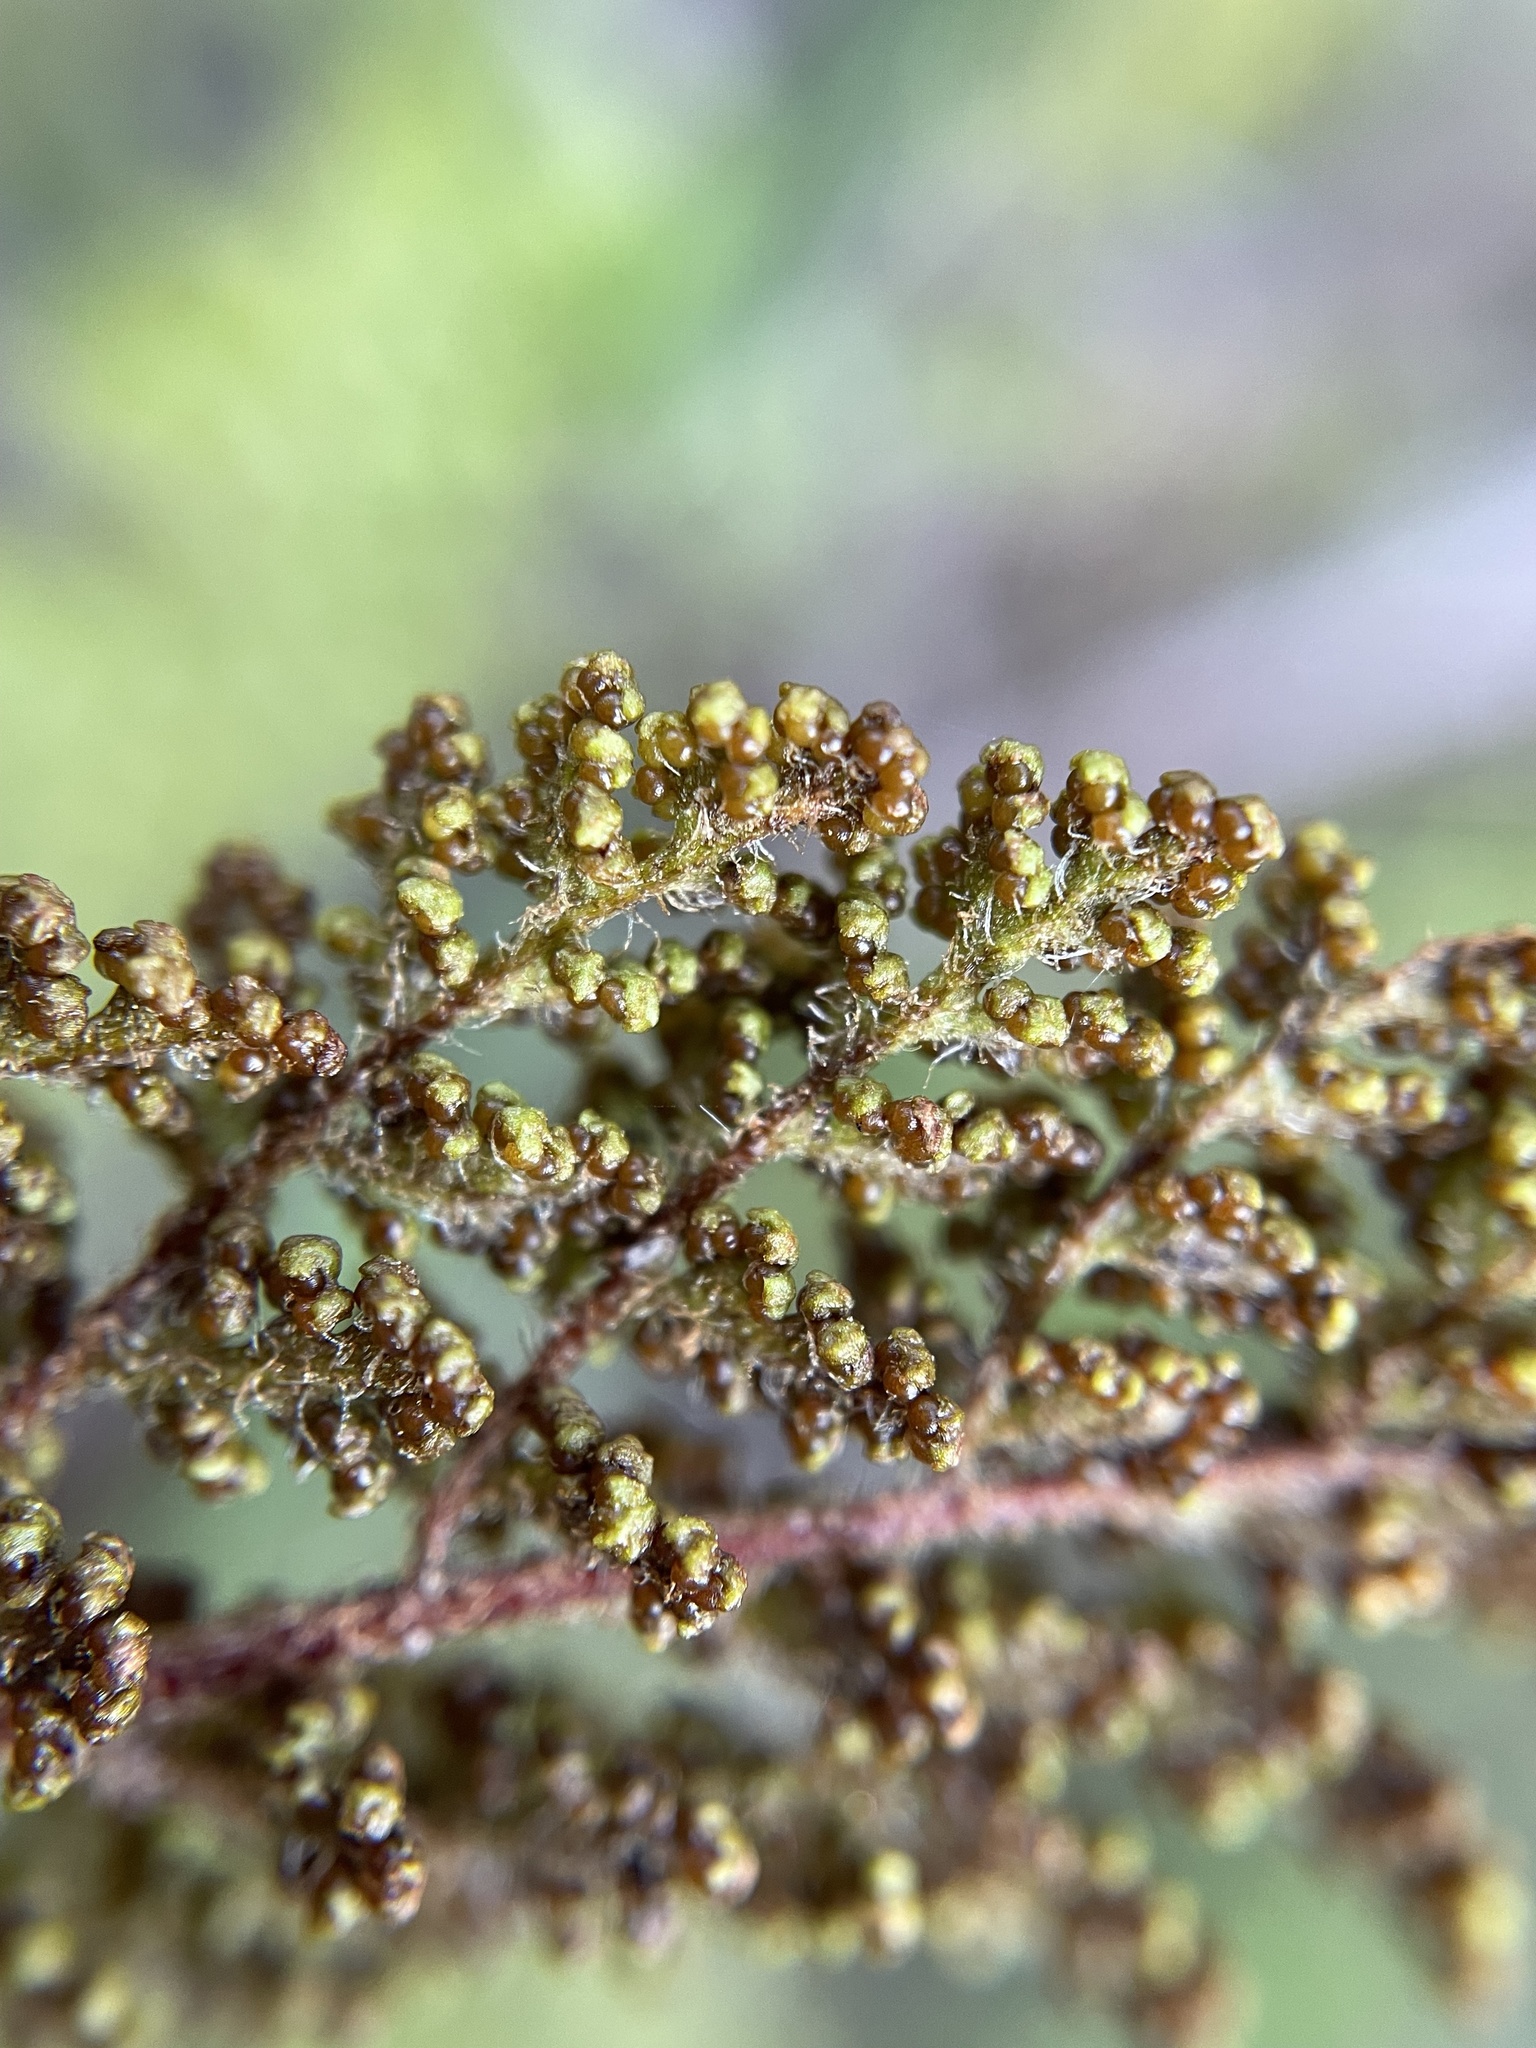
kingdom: Plantae
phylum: Tracheophyta
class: Polypodiopsida
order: Schizaeales
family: Anemiaceae
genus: Anemia
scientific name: Anemia caffrorum
